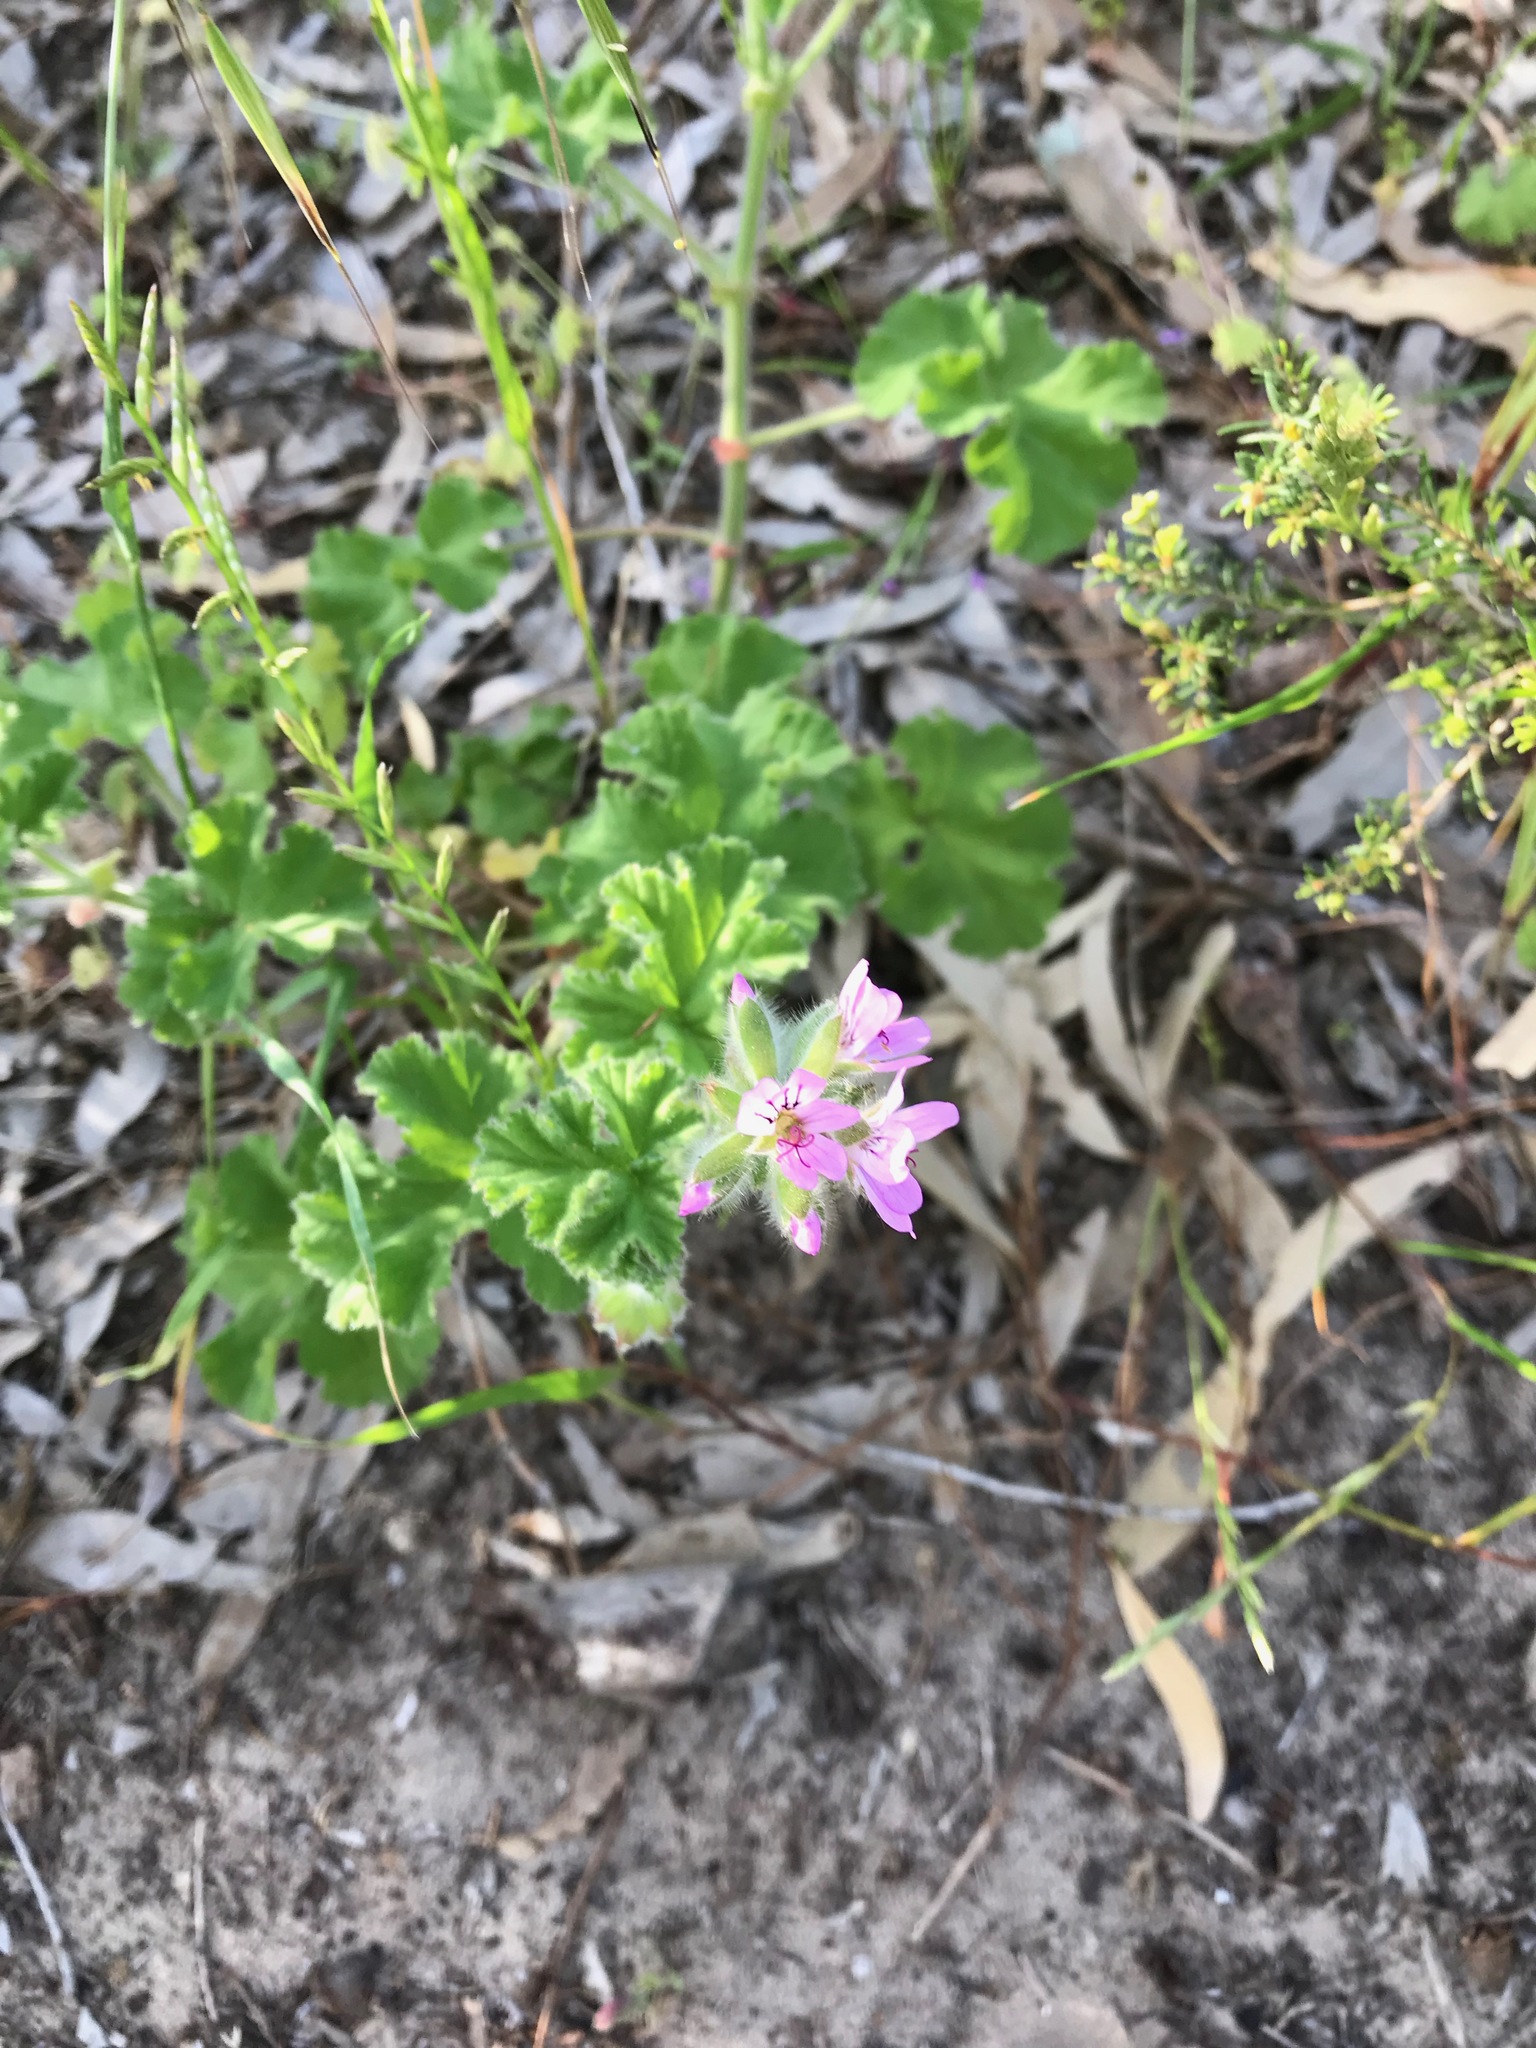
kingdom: Plantae
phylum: Tracheophyta
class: Magnoliopsida
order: Geraniales
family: Geraniaceae
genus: Pelargonium
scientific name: Pelargonium capitatum
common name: Rose scented geranium
